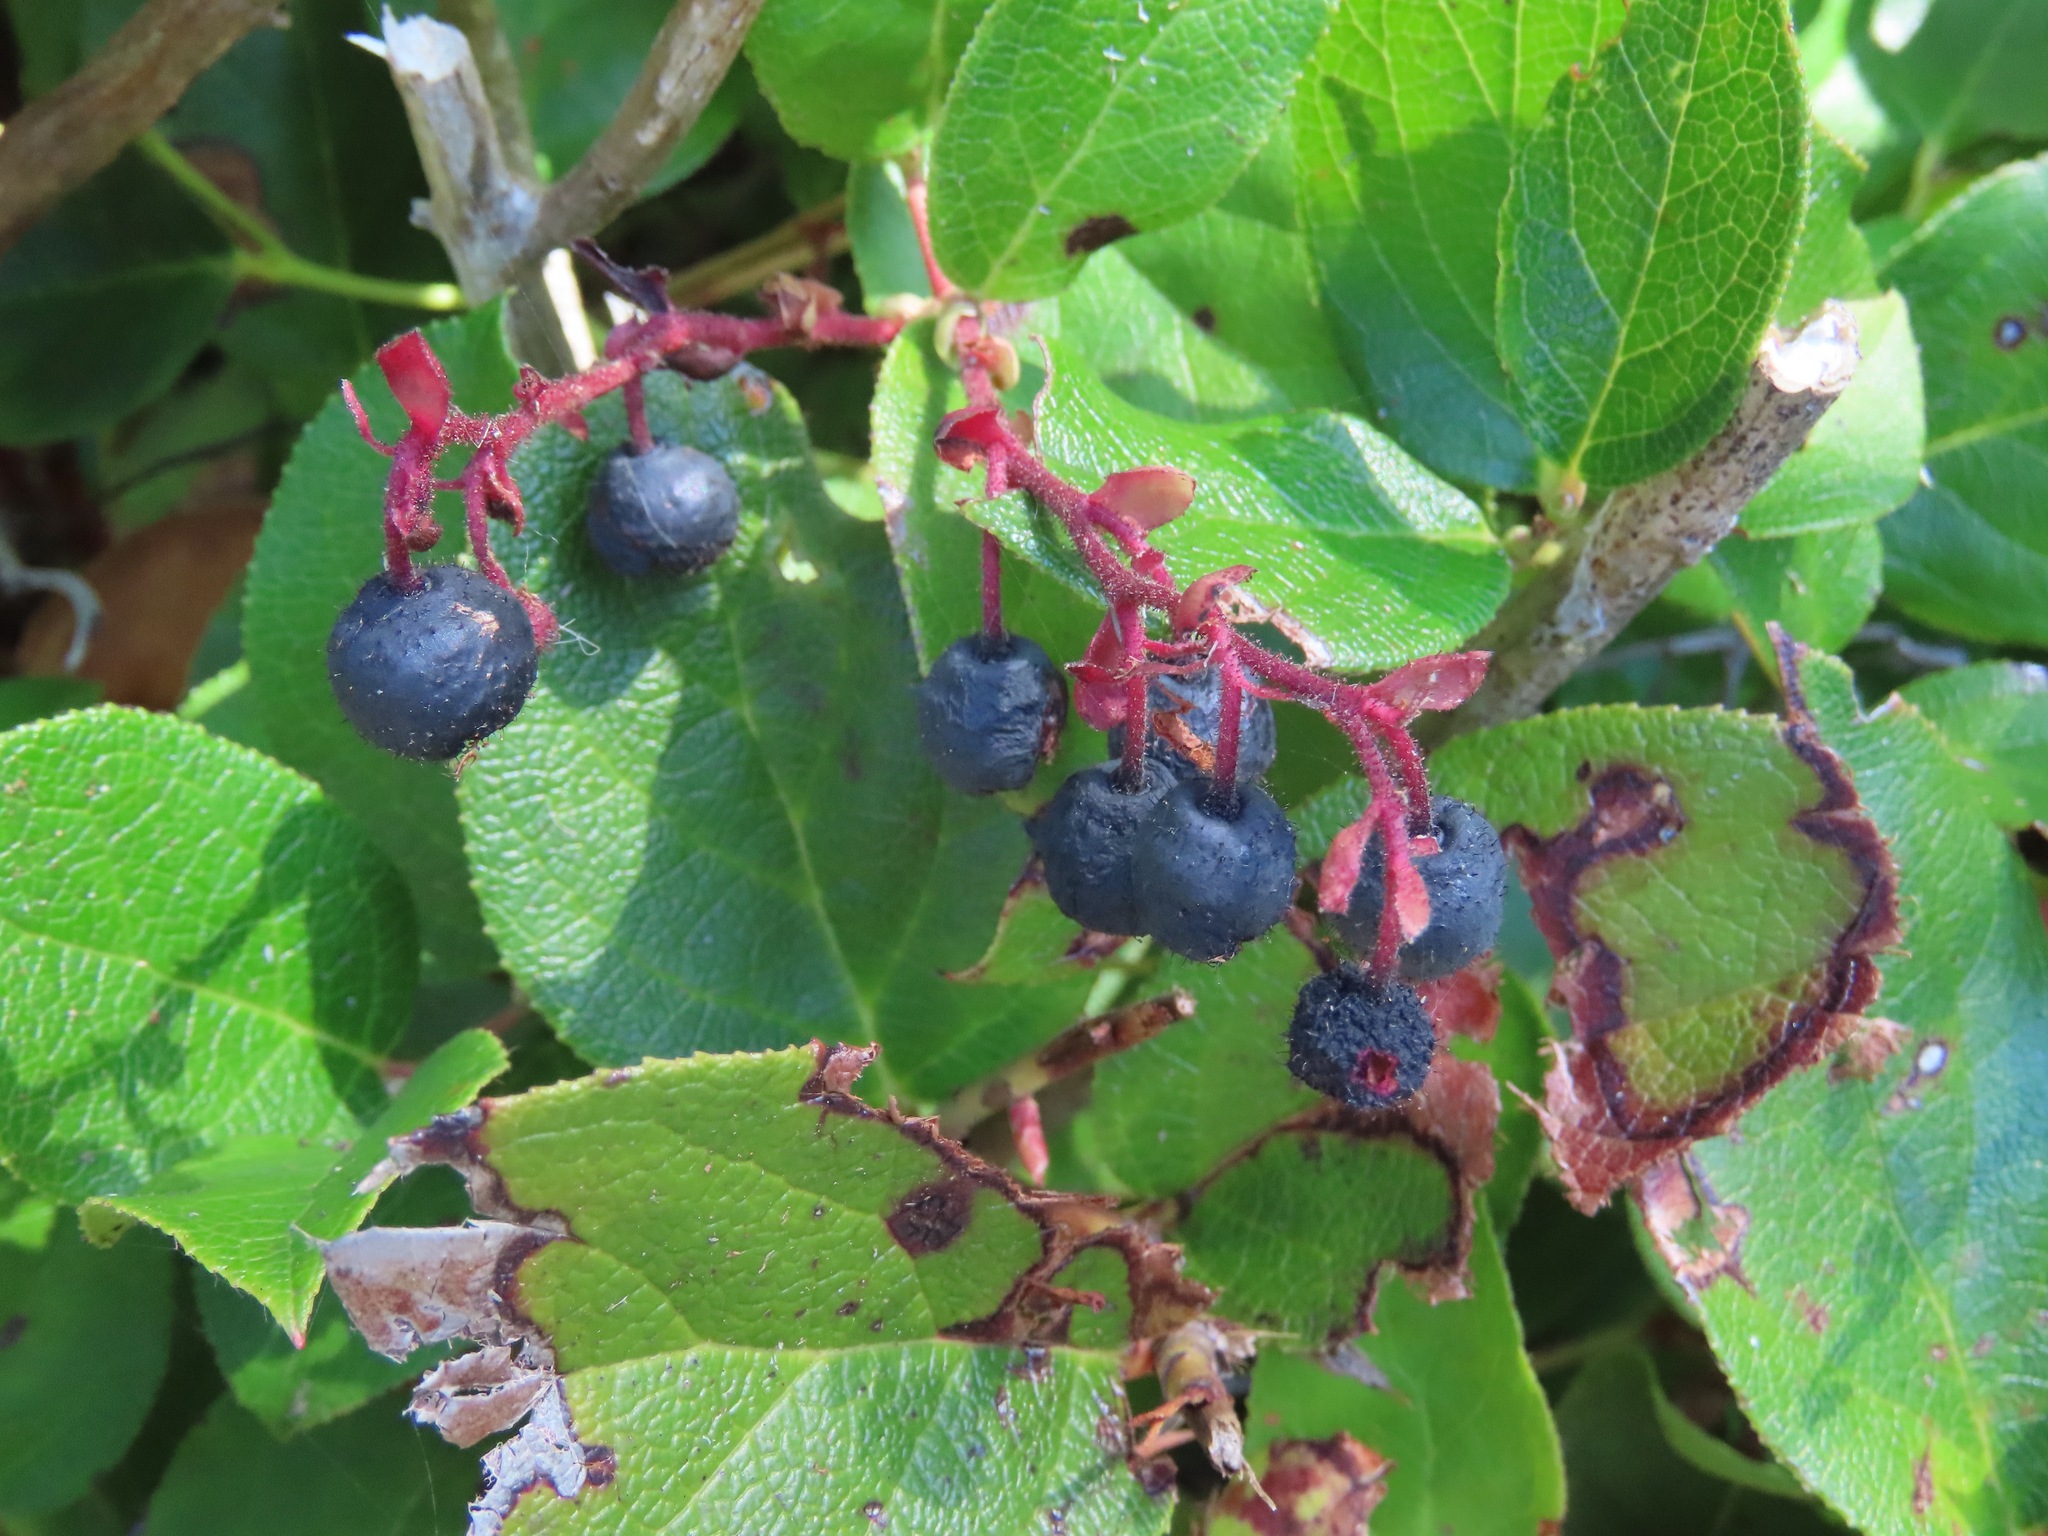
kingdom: Plantae
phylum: Tracheophyta
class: Magnoliopsida
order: Ericales
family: Ericaceae
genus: Gaultheria
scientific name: Gaultheria shallon
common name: Shallon
